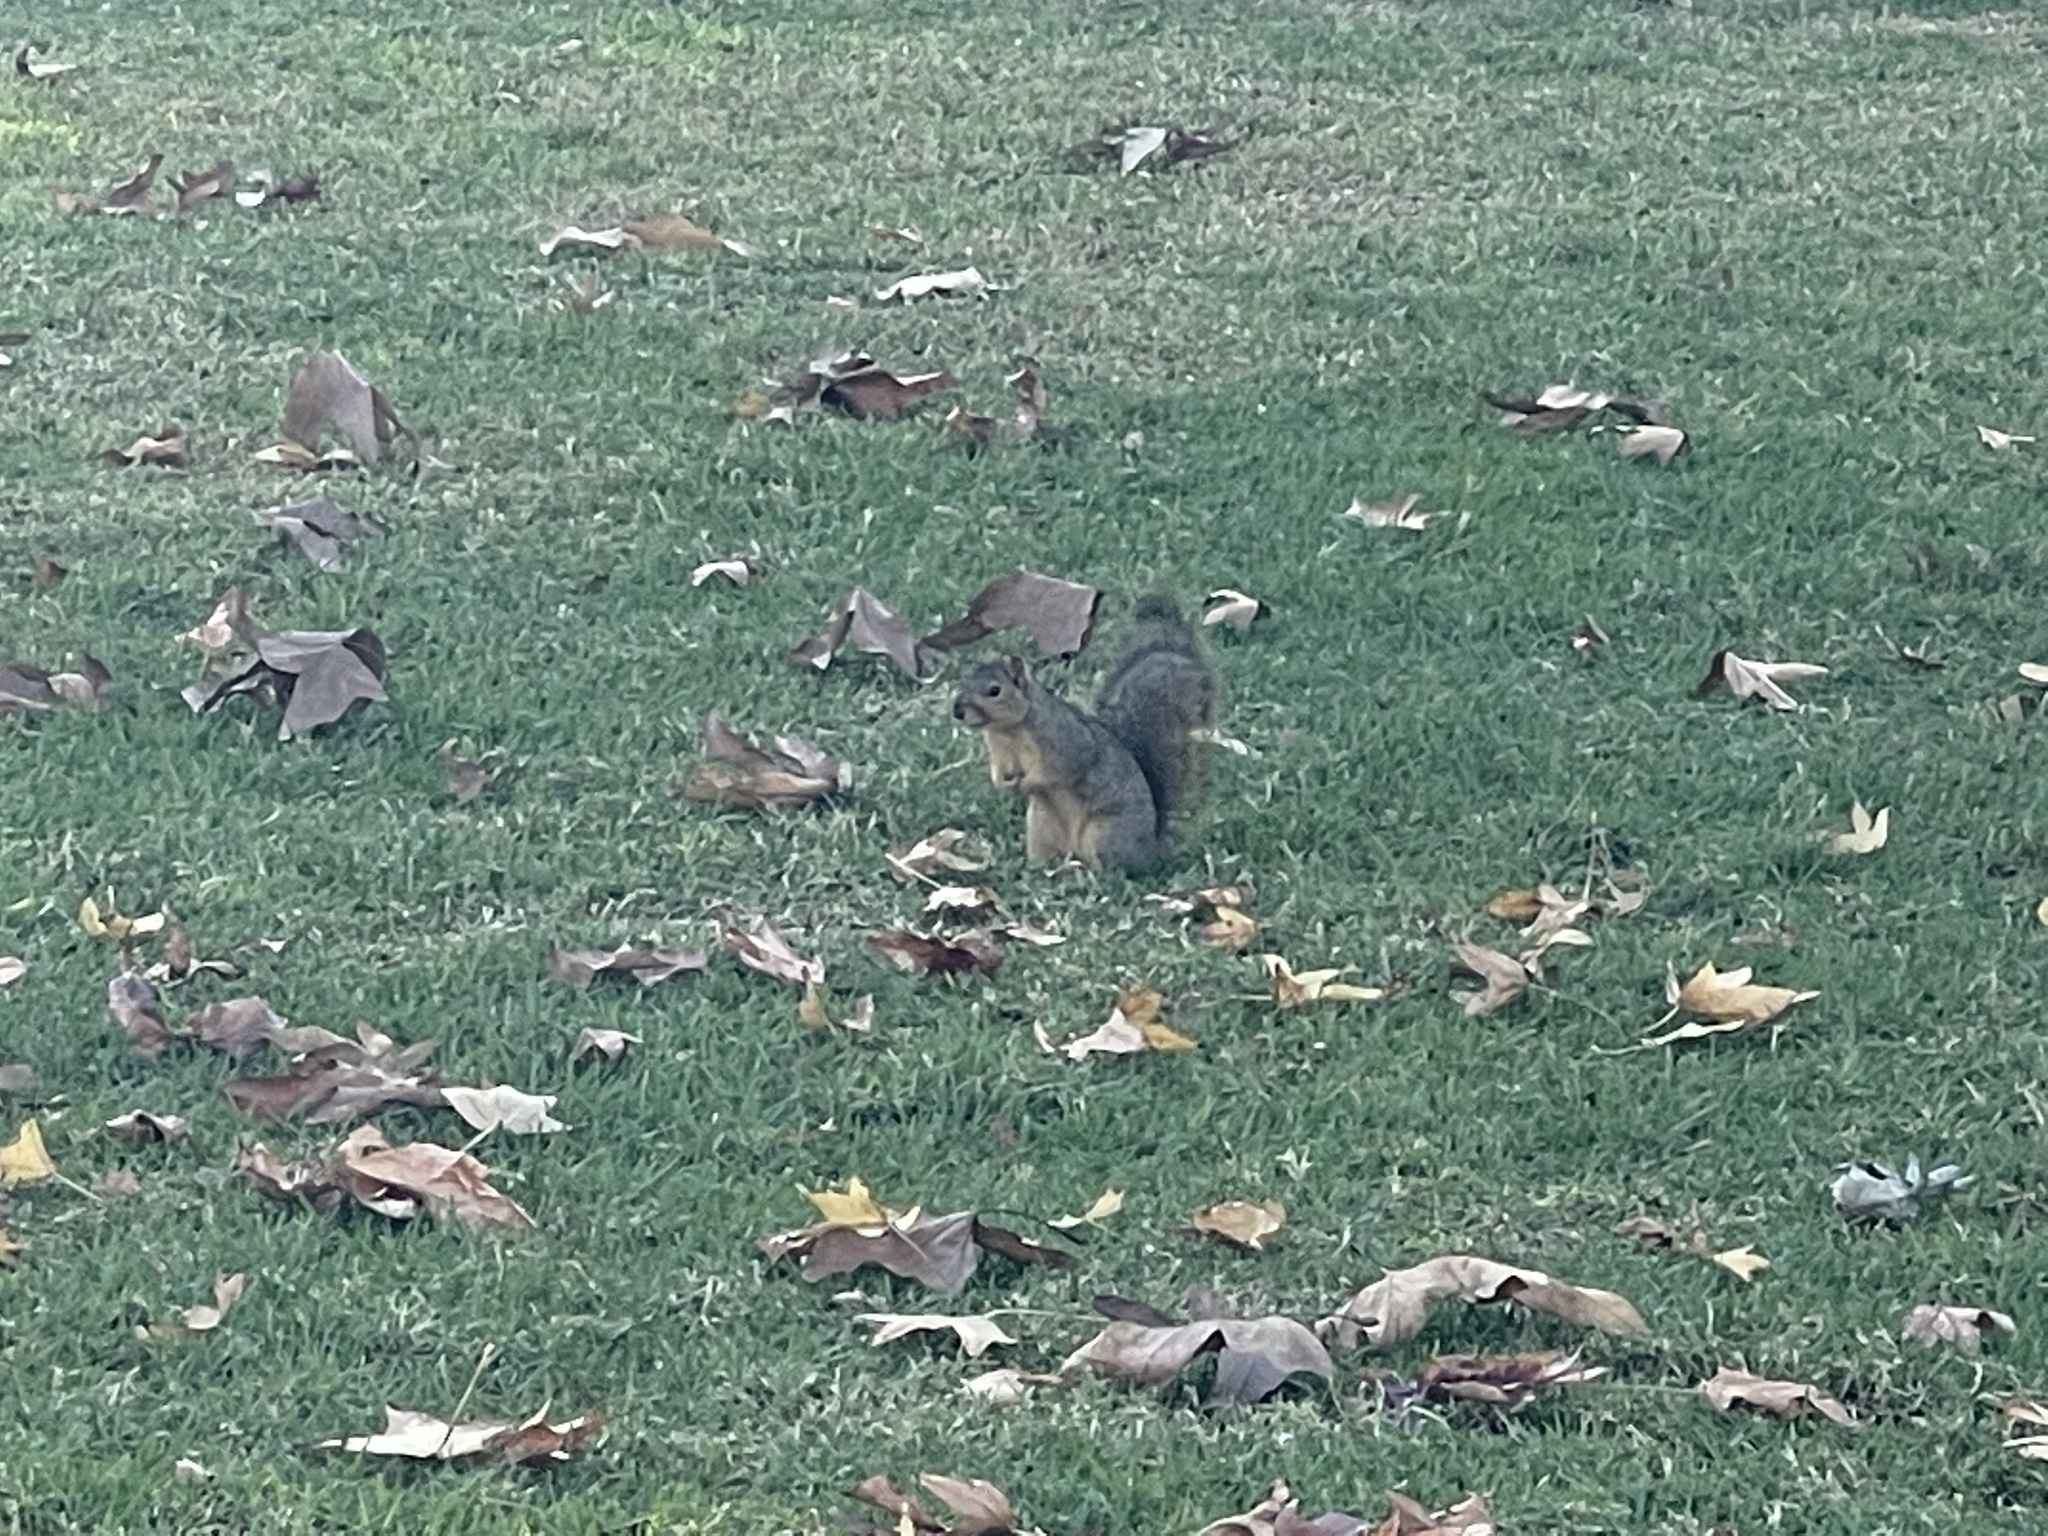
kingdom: Animalia
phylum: Chordata
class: Mammalia
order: Rodentia
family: Sciuridae
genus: Sciurus
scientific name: Sciurus niger
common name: Fox squirrel
